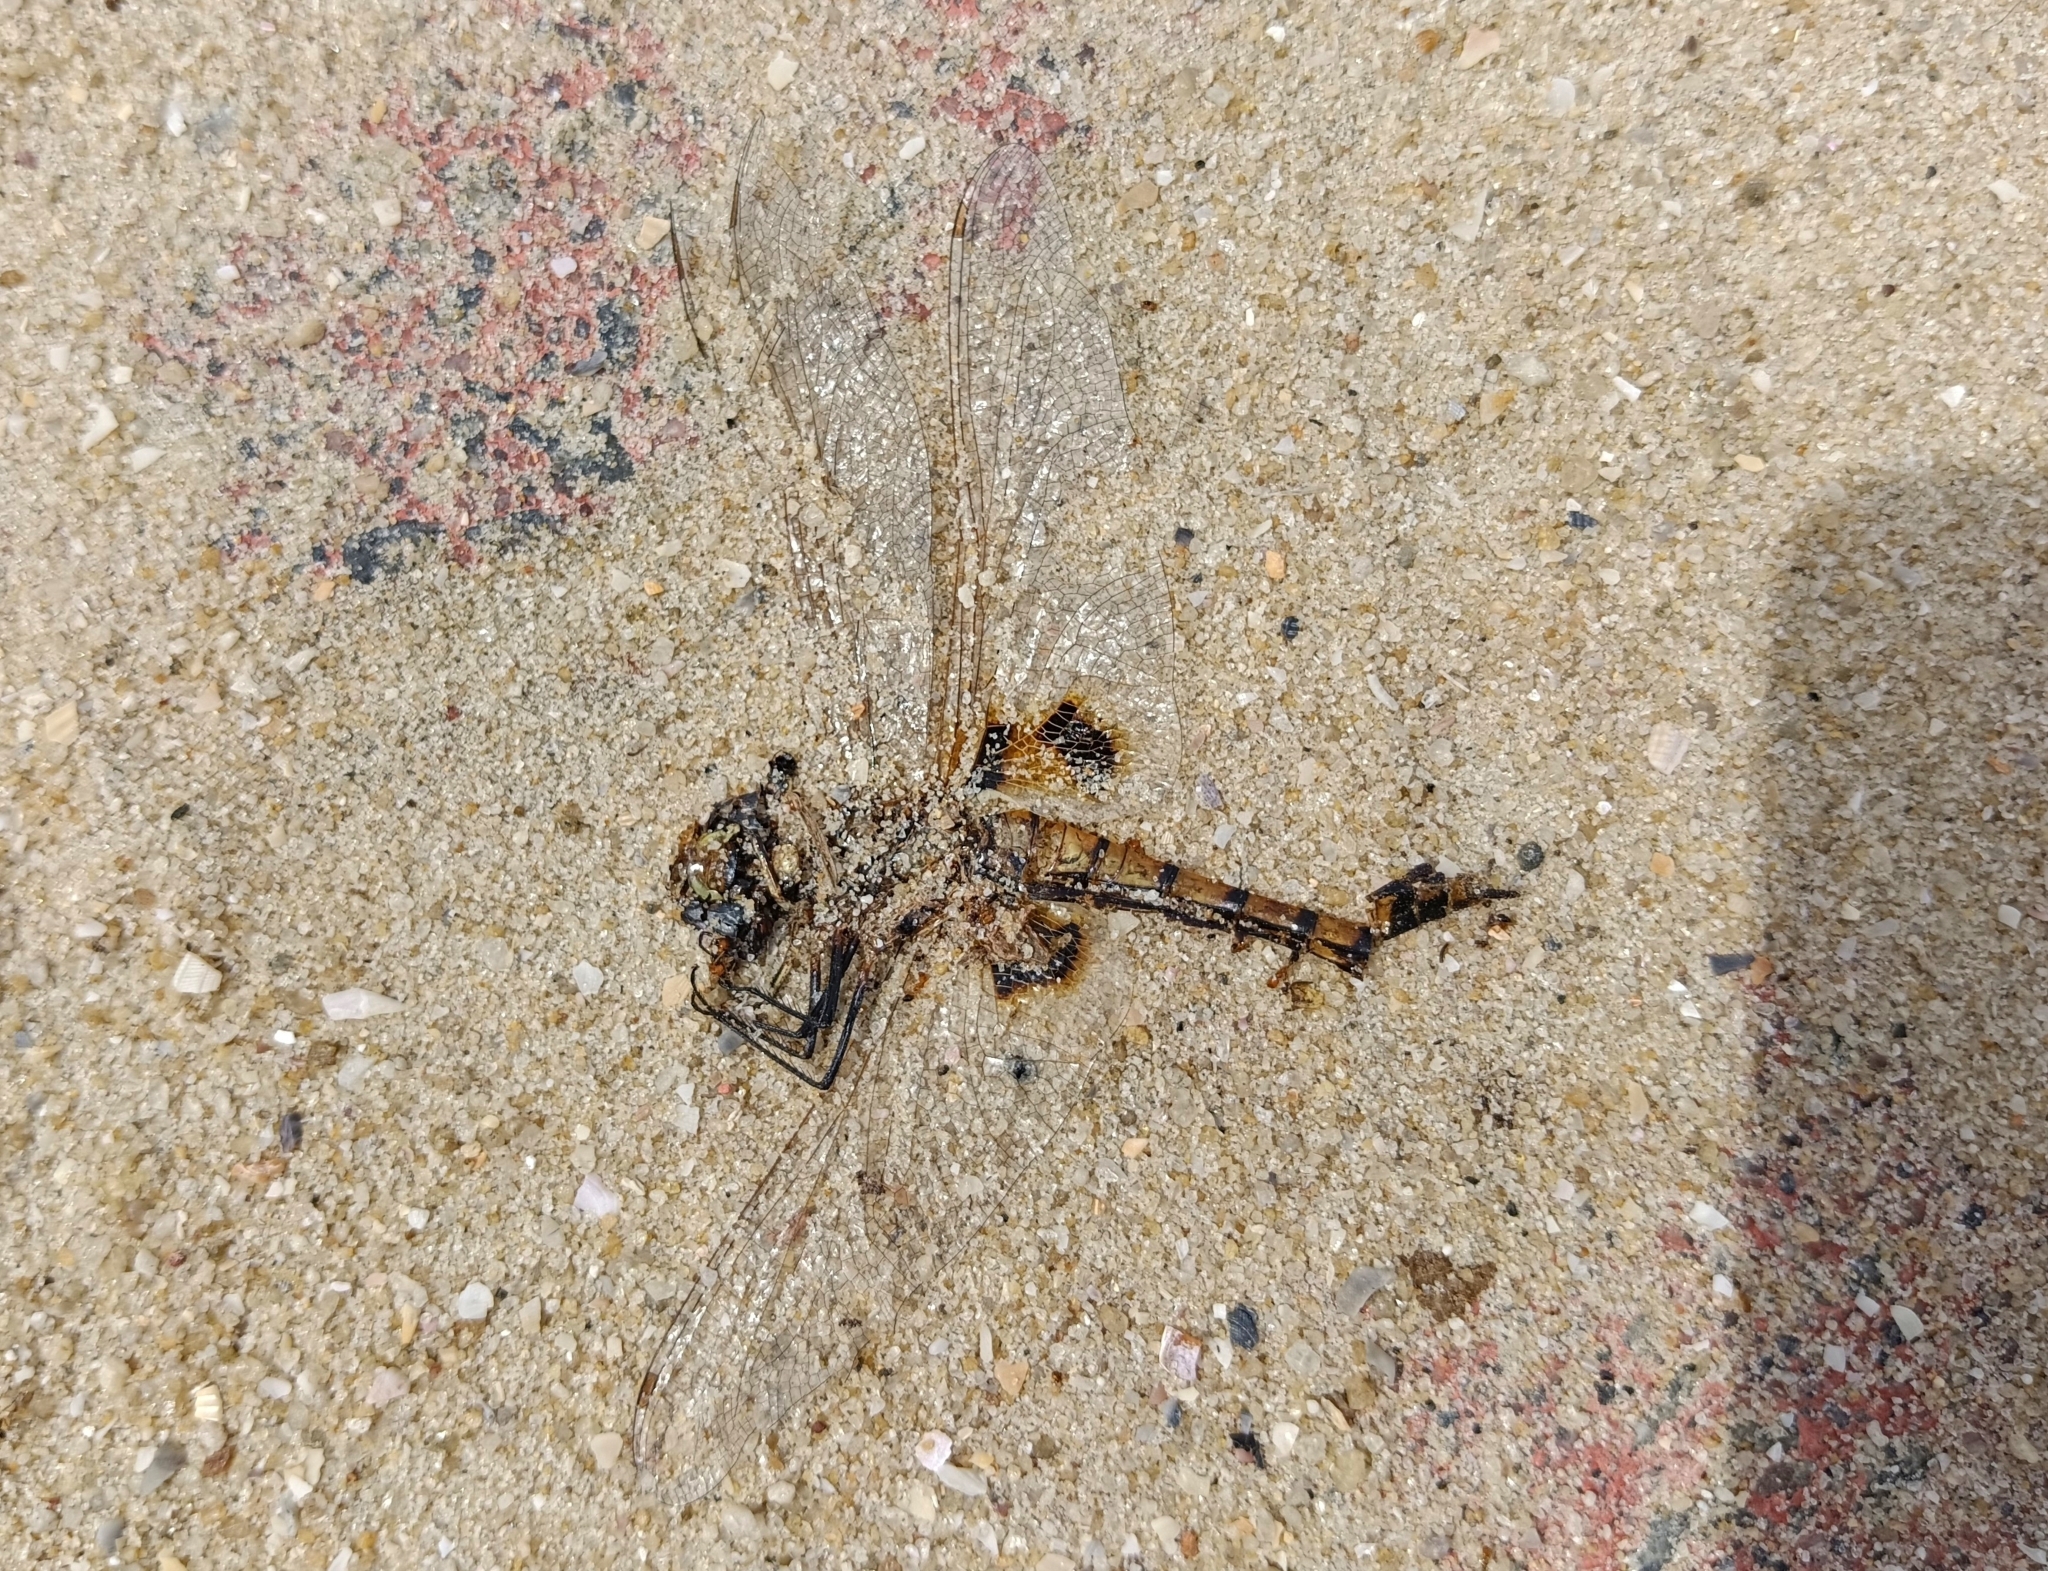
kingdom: Animalia
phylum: Arthropoda
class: Insecta
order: Odonata
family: Libellulidae
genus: Tramea
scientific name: Tramea basilaris
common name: Keyhole glider
